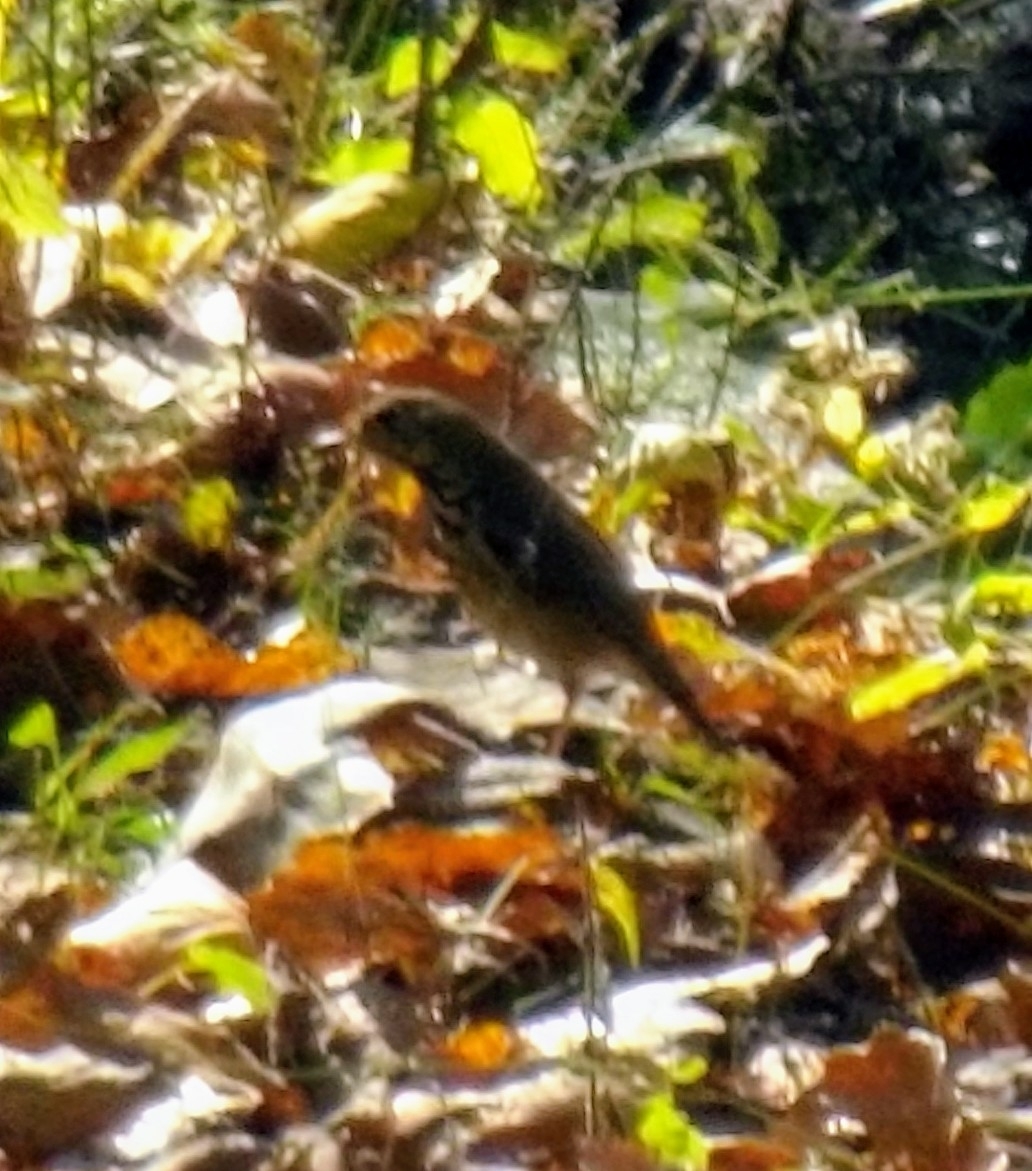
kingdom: Animalia
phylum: Chordata
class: Aves
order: Passeriformes
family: Turdidae
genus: Catharus
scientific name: Catharus guttatus
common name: Hermit thrush
